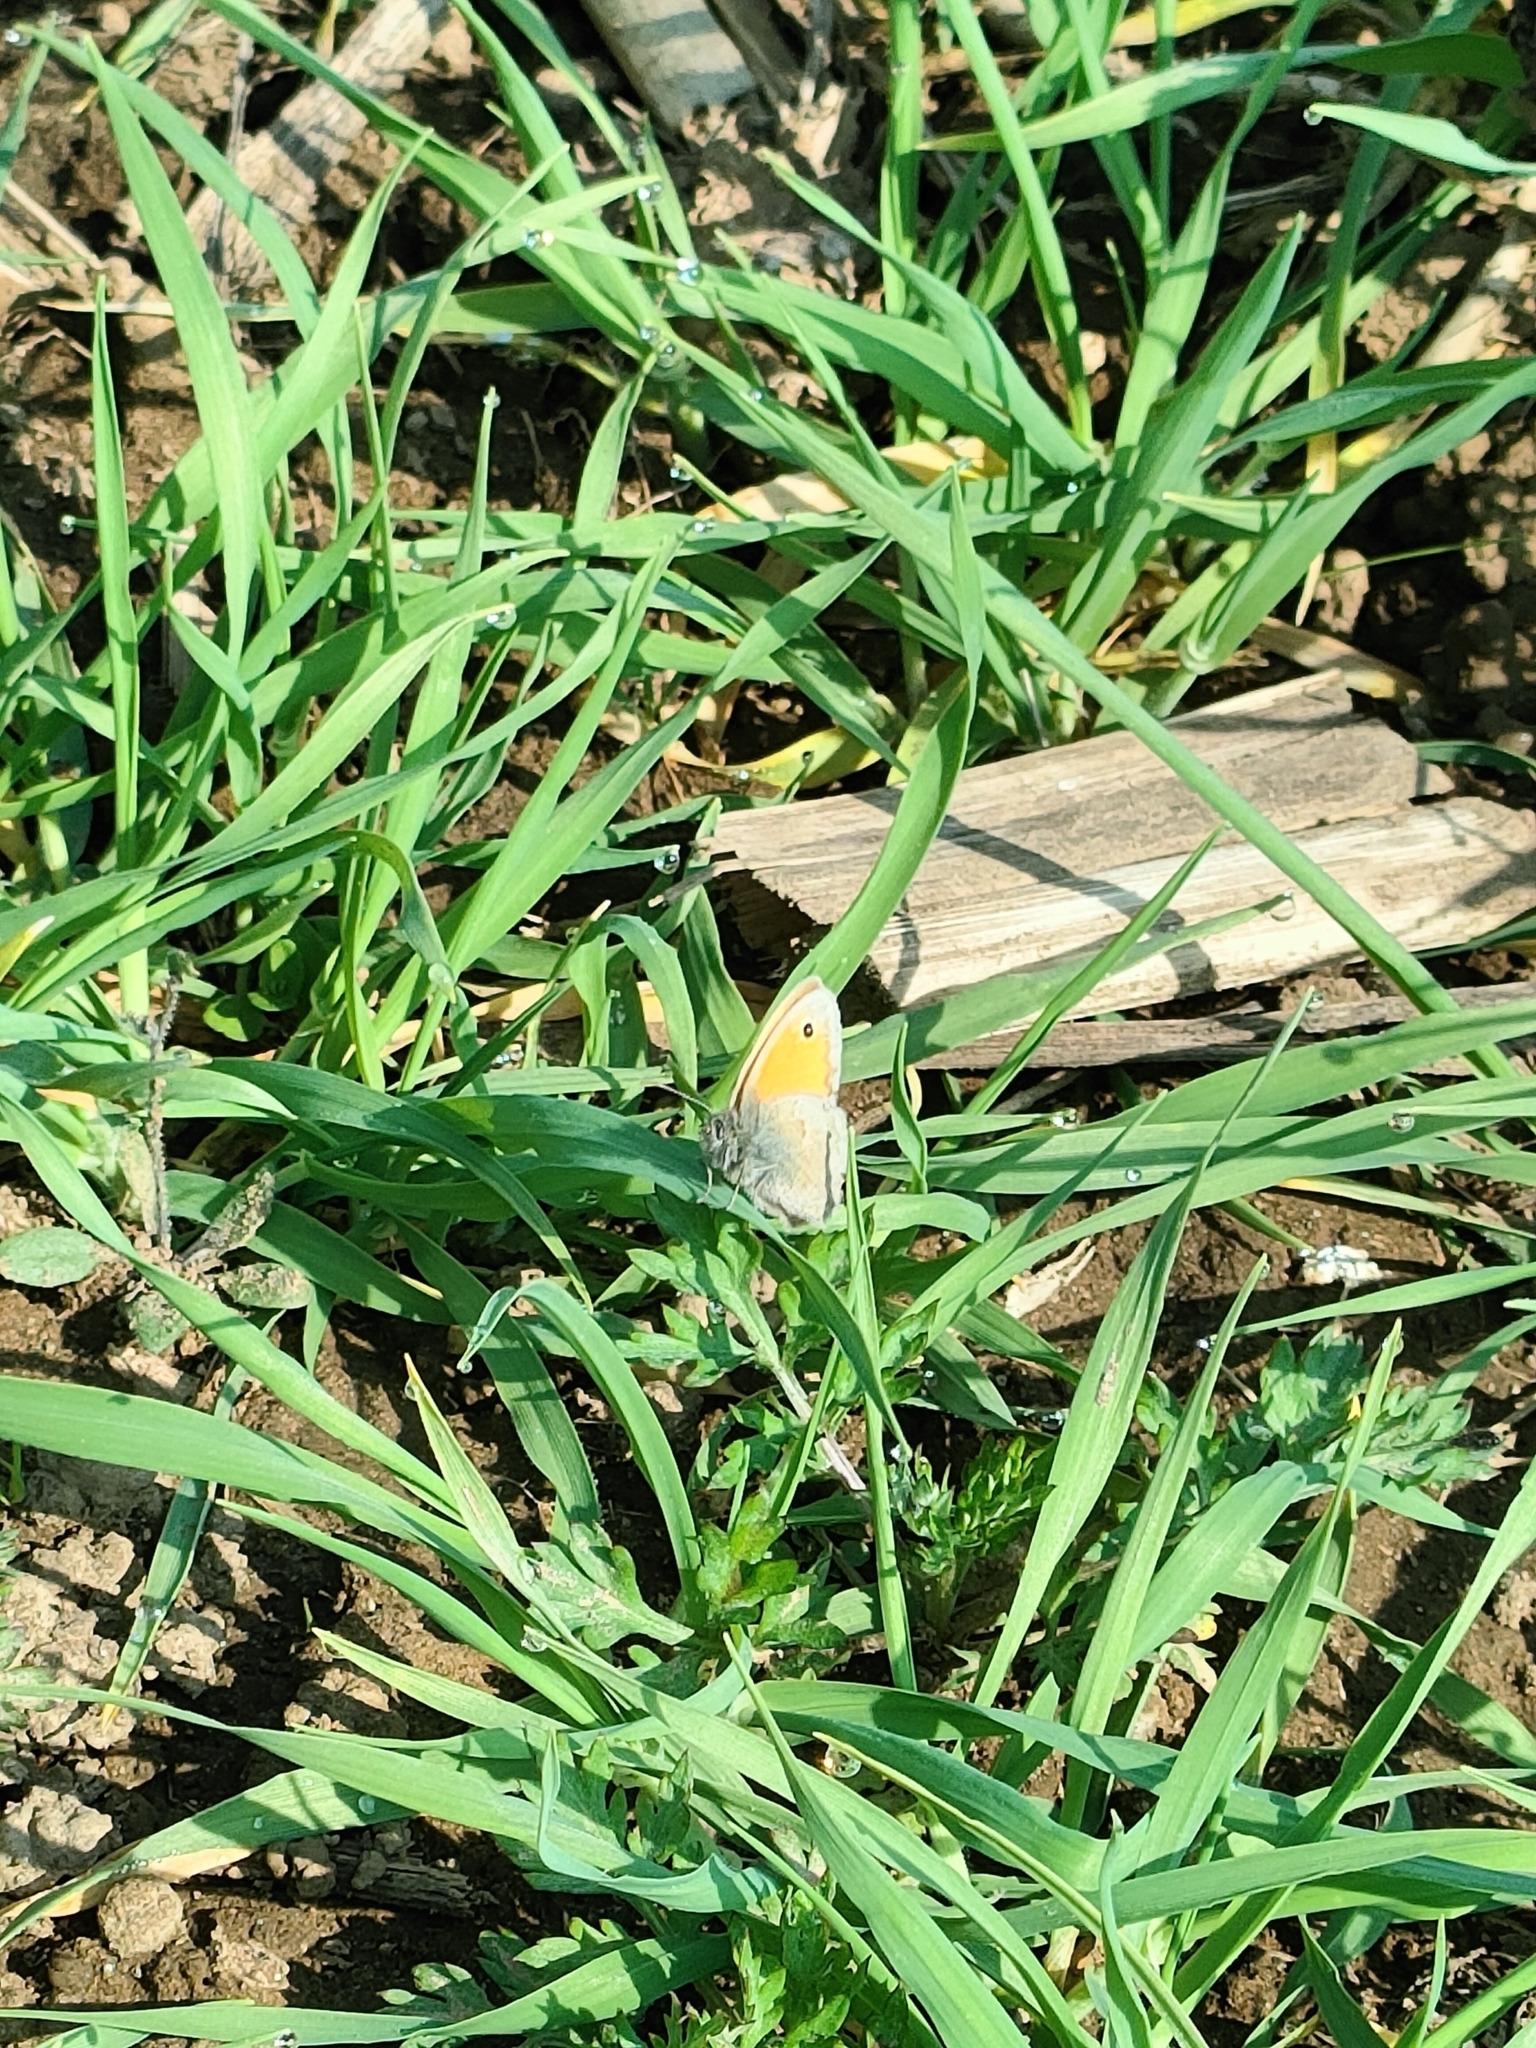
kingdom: Animalia
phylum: Arthropoda
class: Insecta
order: Lepidoptera
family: Nymphalidae
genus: Coenonympha
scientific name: Coenonympha pamphilus
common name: Small heath
